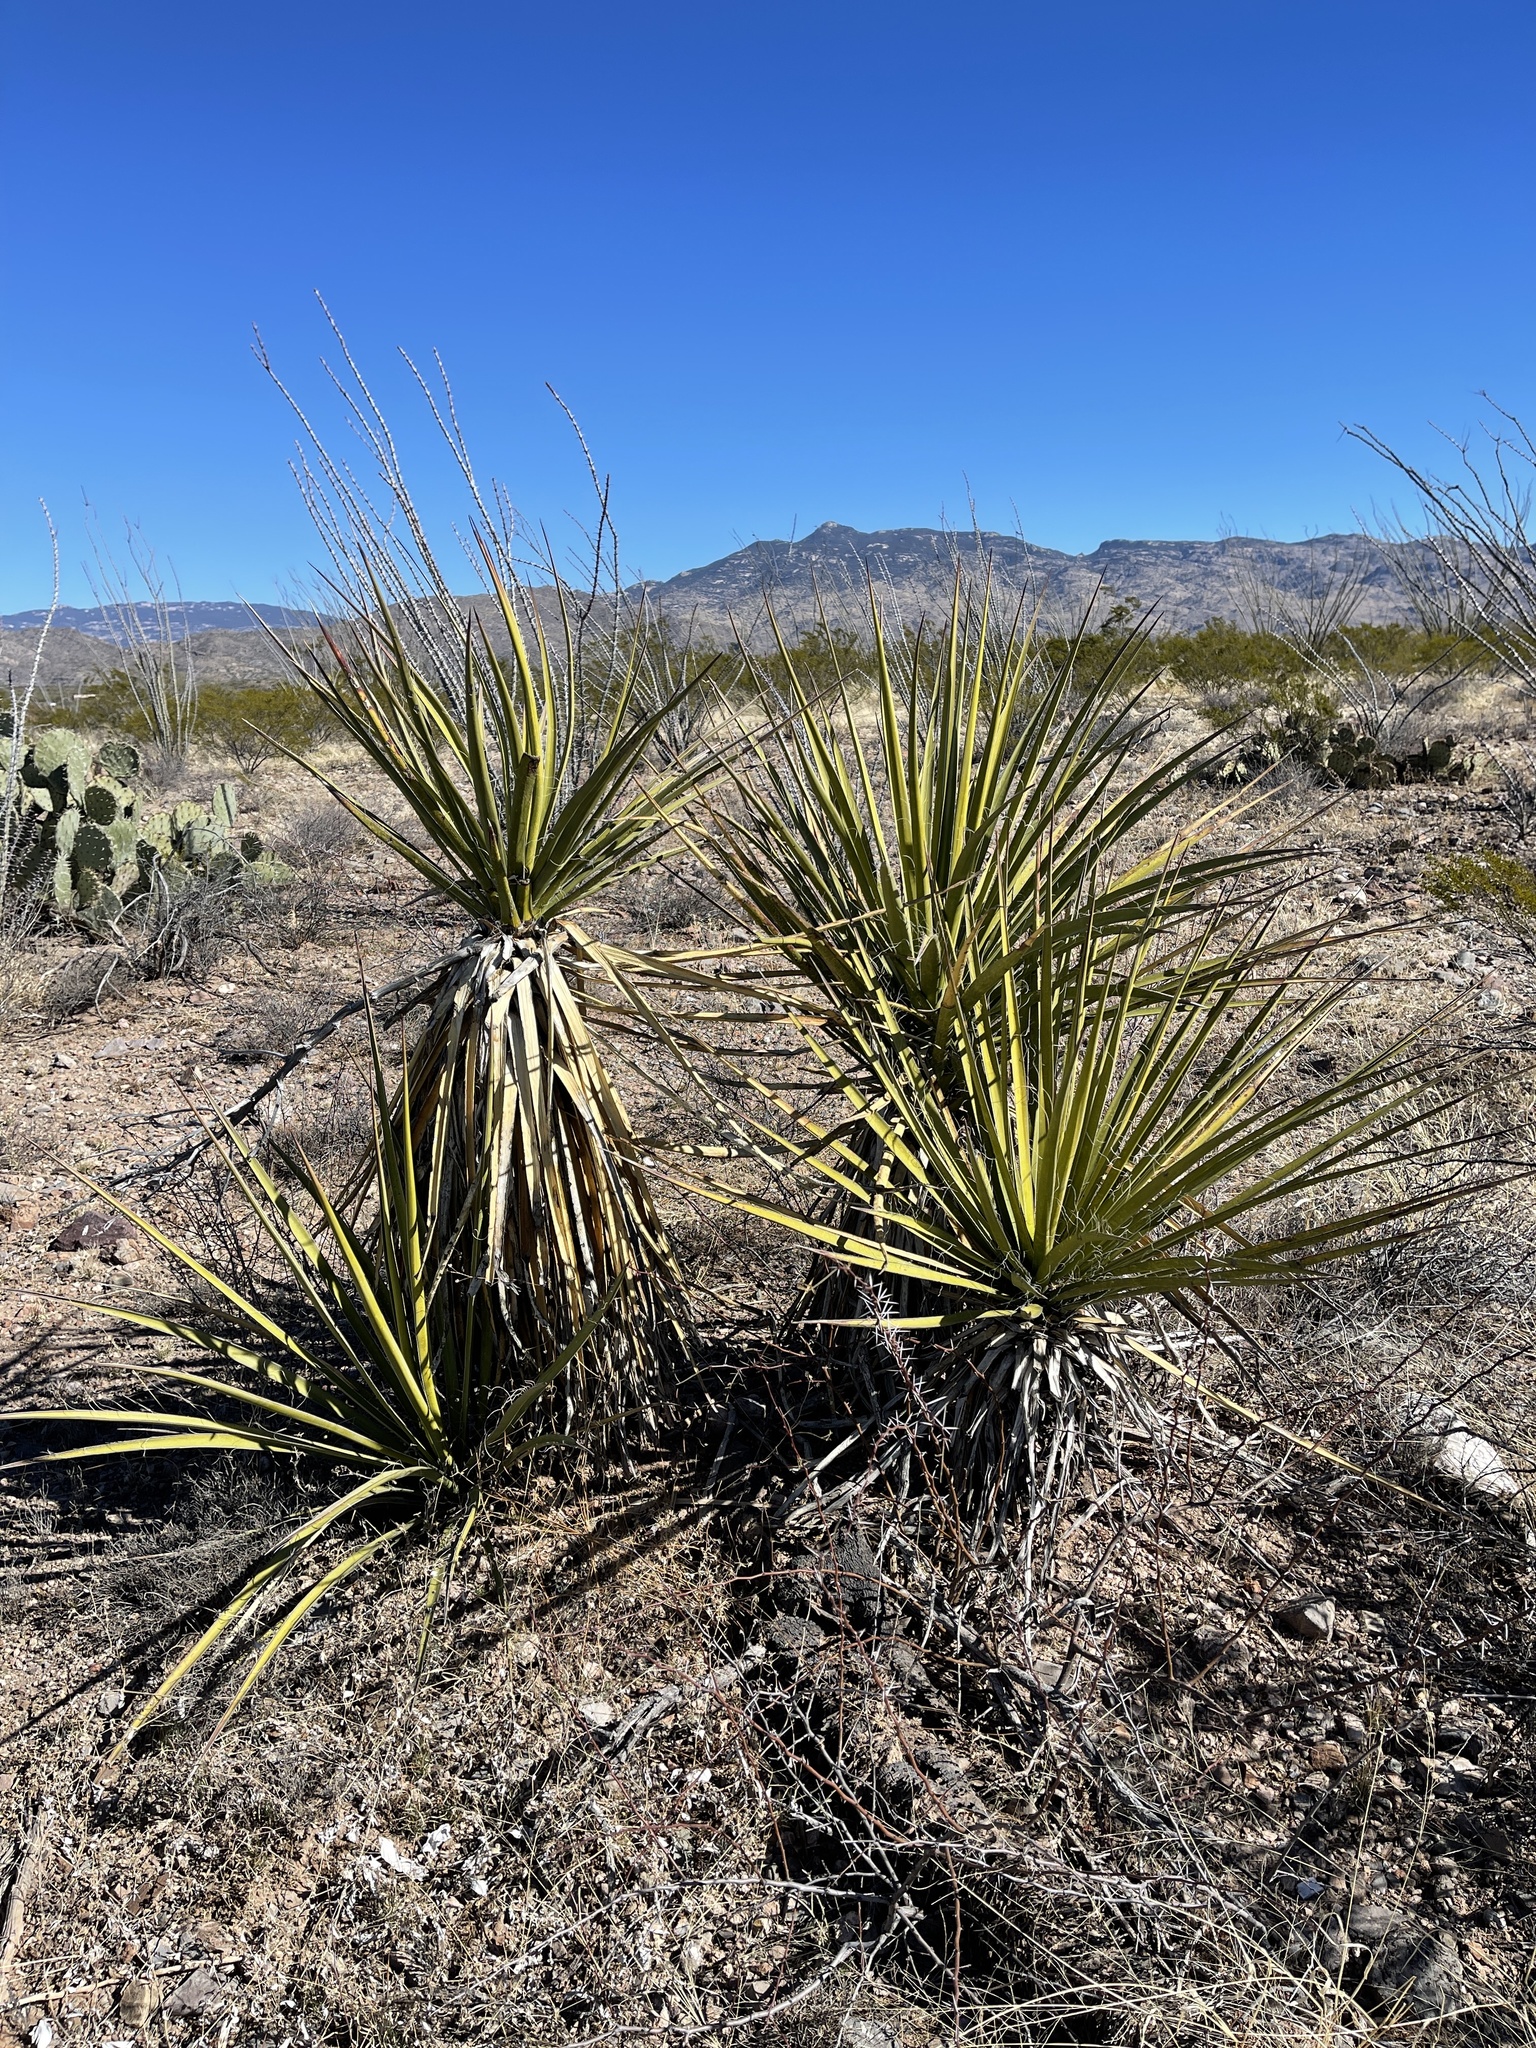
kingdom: Plantae
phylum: Tracheophyta
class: Liliopsida
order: Asparagales
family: Asparagaceae
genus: Yucca
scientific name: Yucca baccata
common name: Banana yucca
